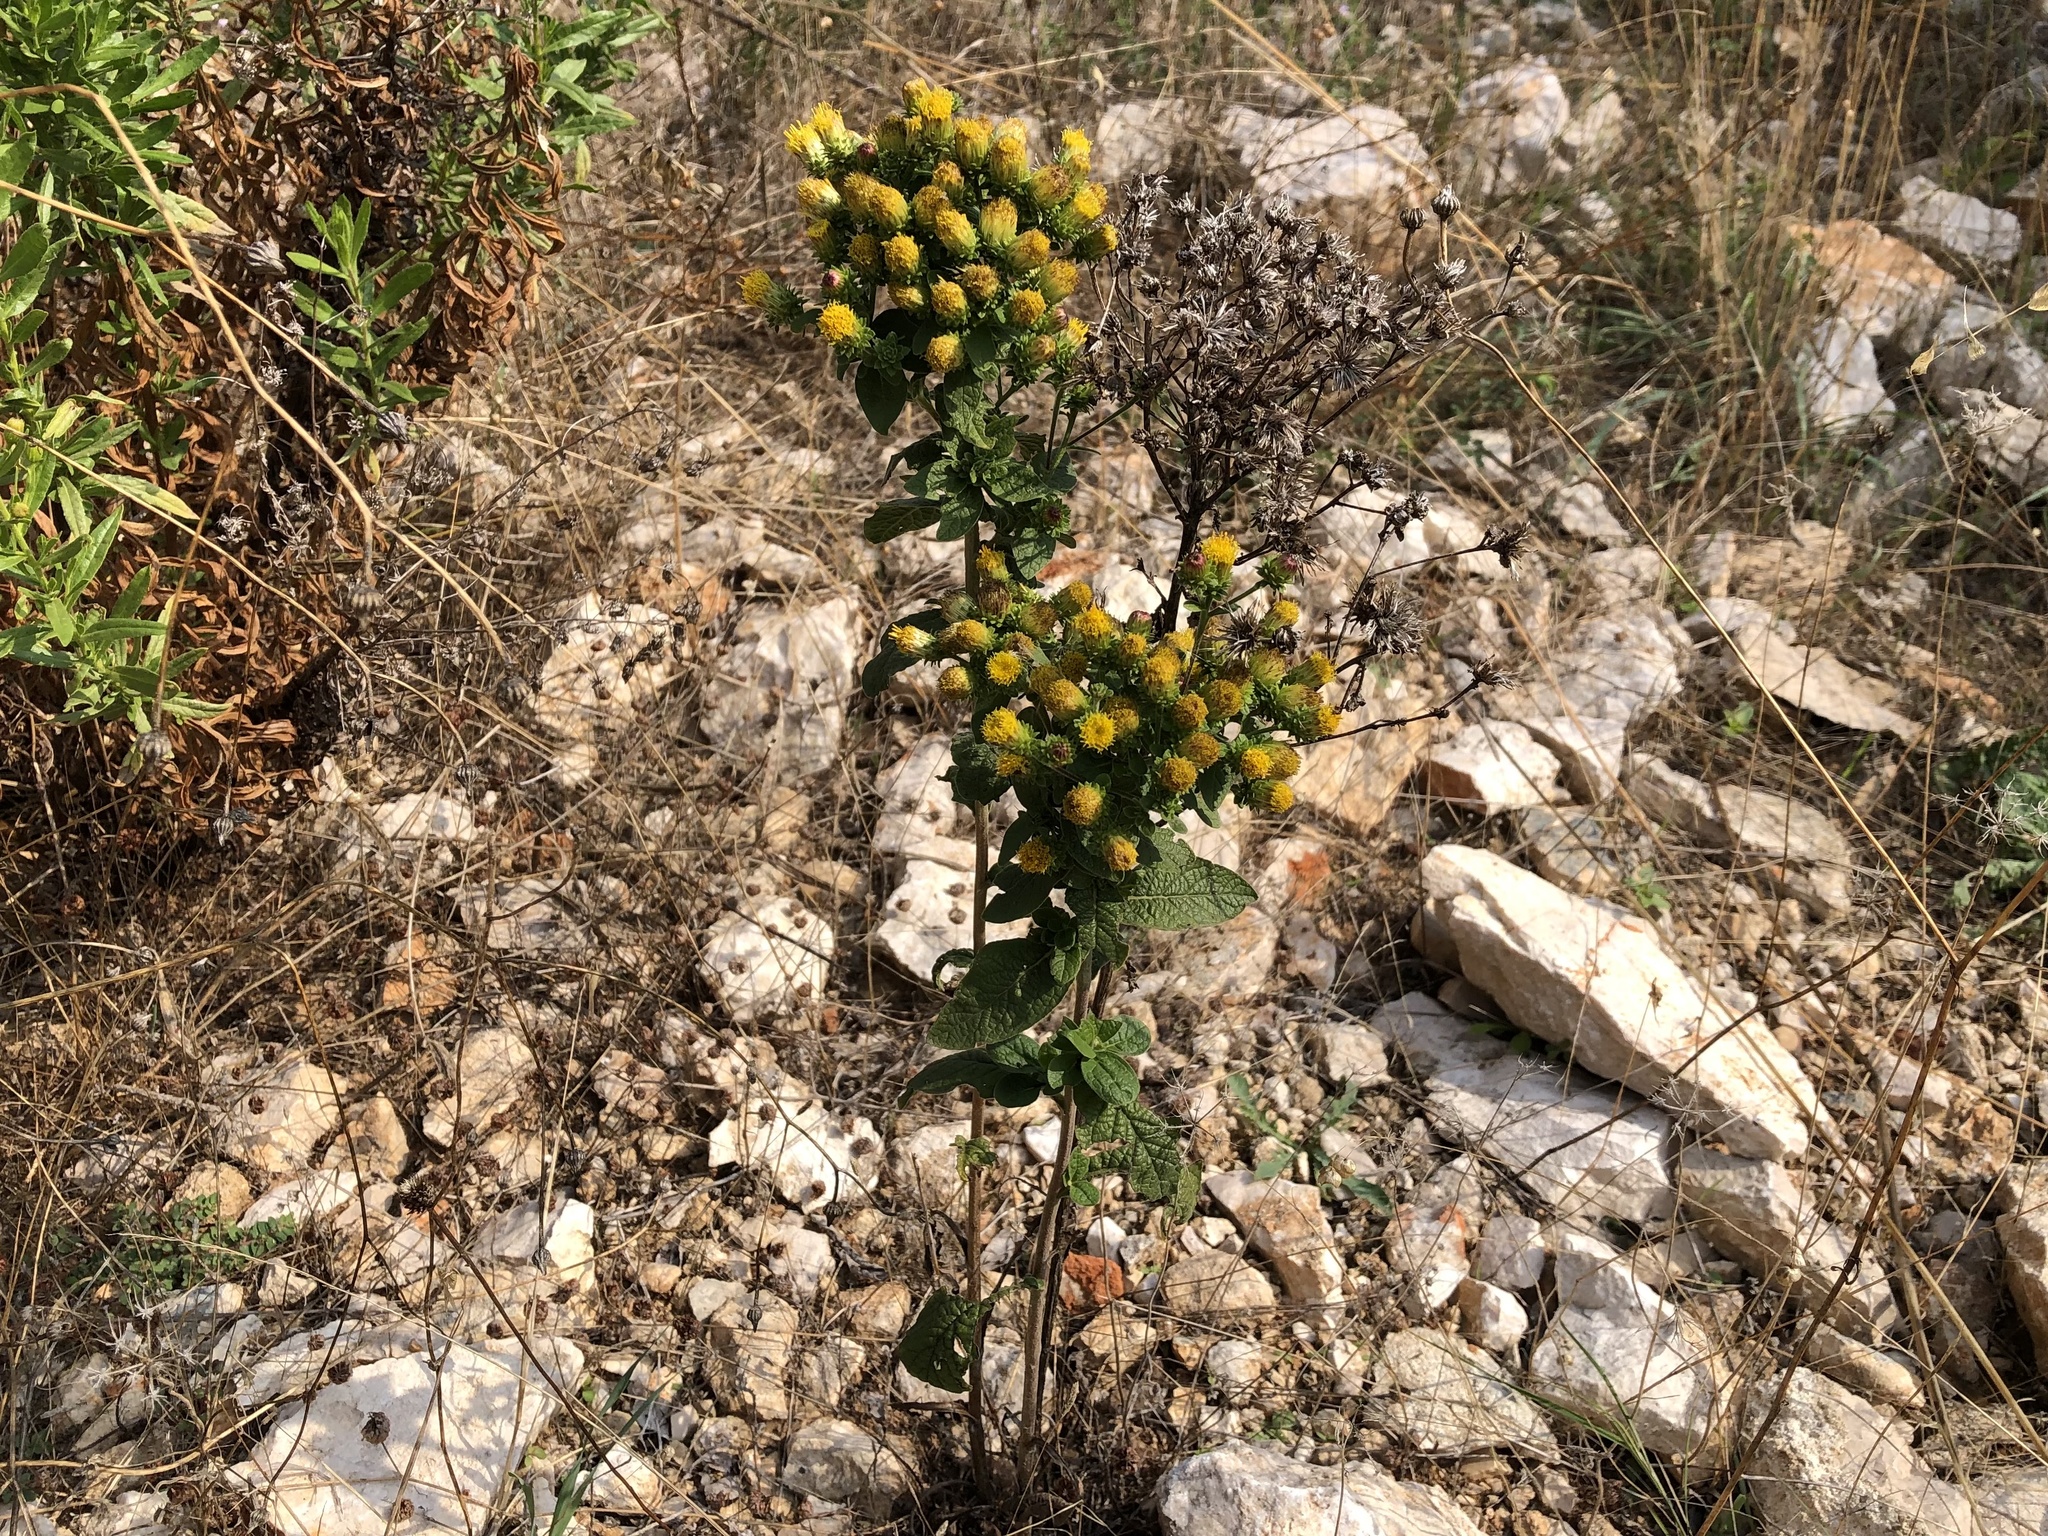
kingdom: Plantae
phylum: Tracheophyta
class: Magnoliopsida
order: Asterales
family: Asteraceae
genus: Pentanema
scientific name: Pentanema squarrosum
